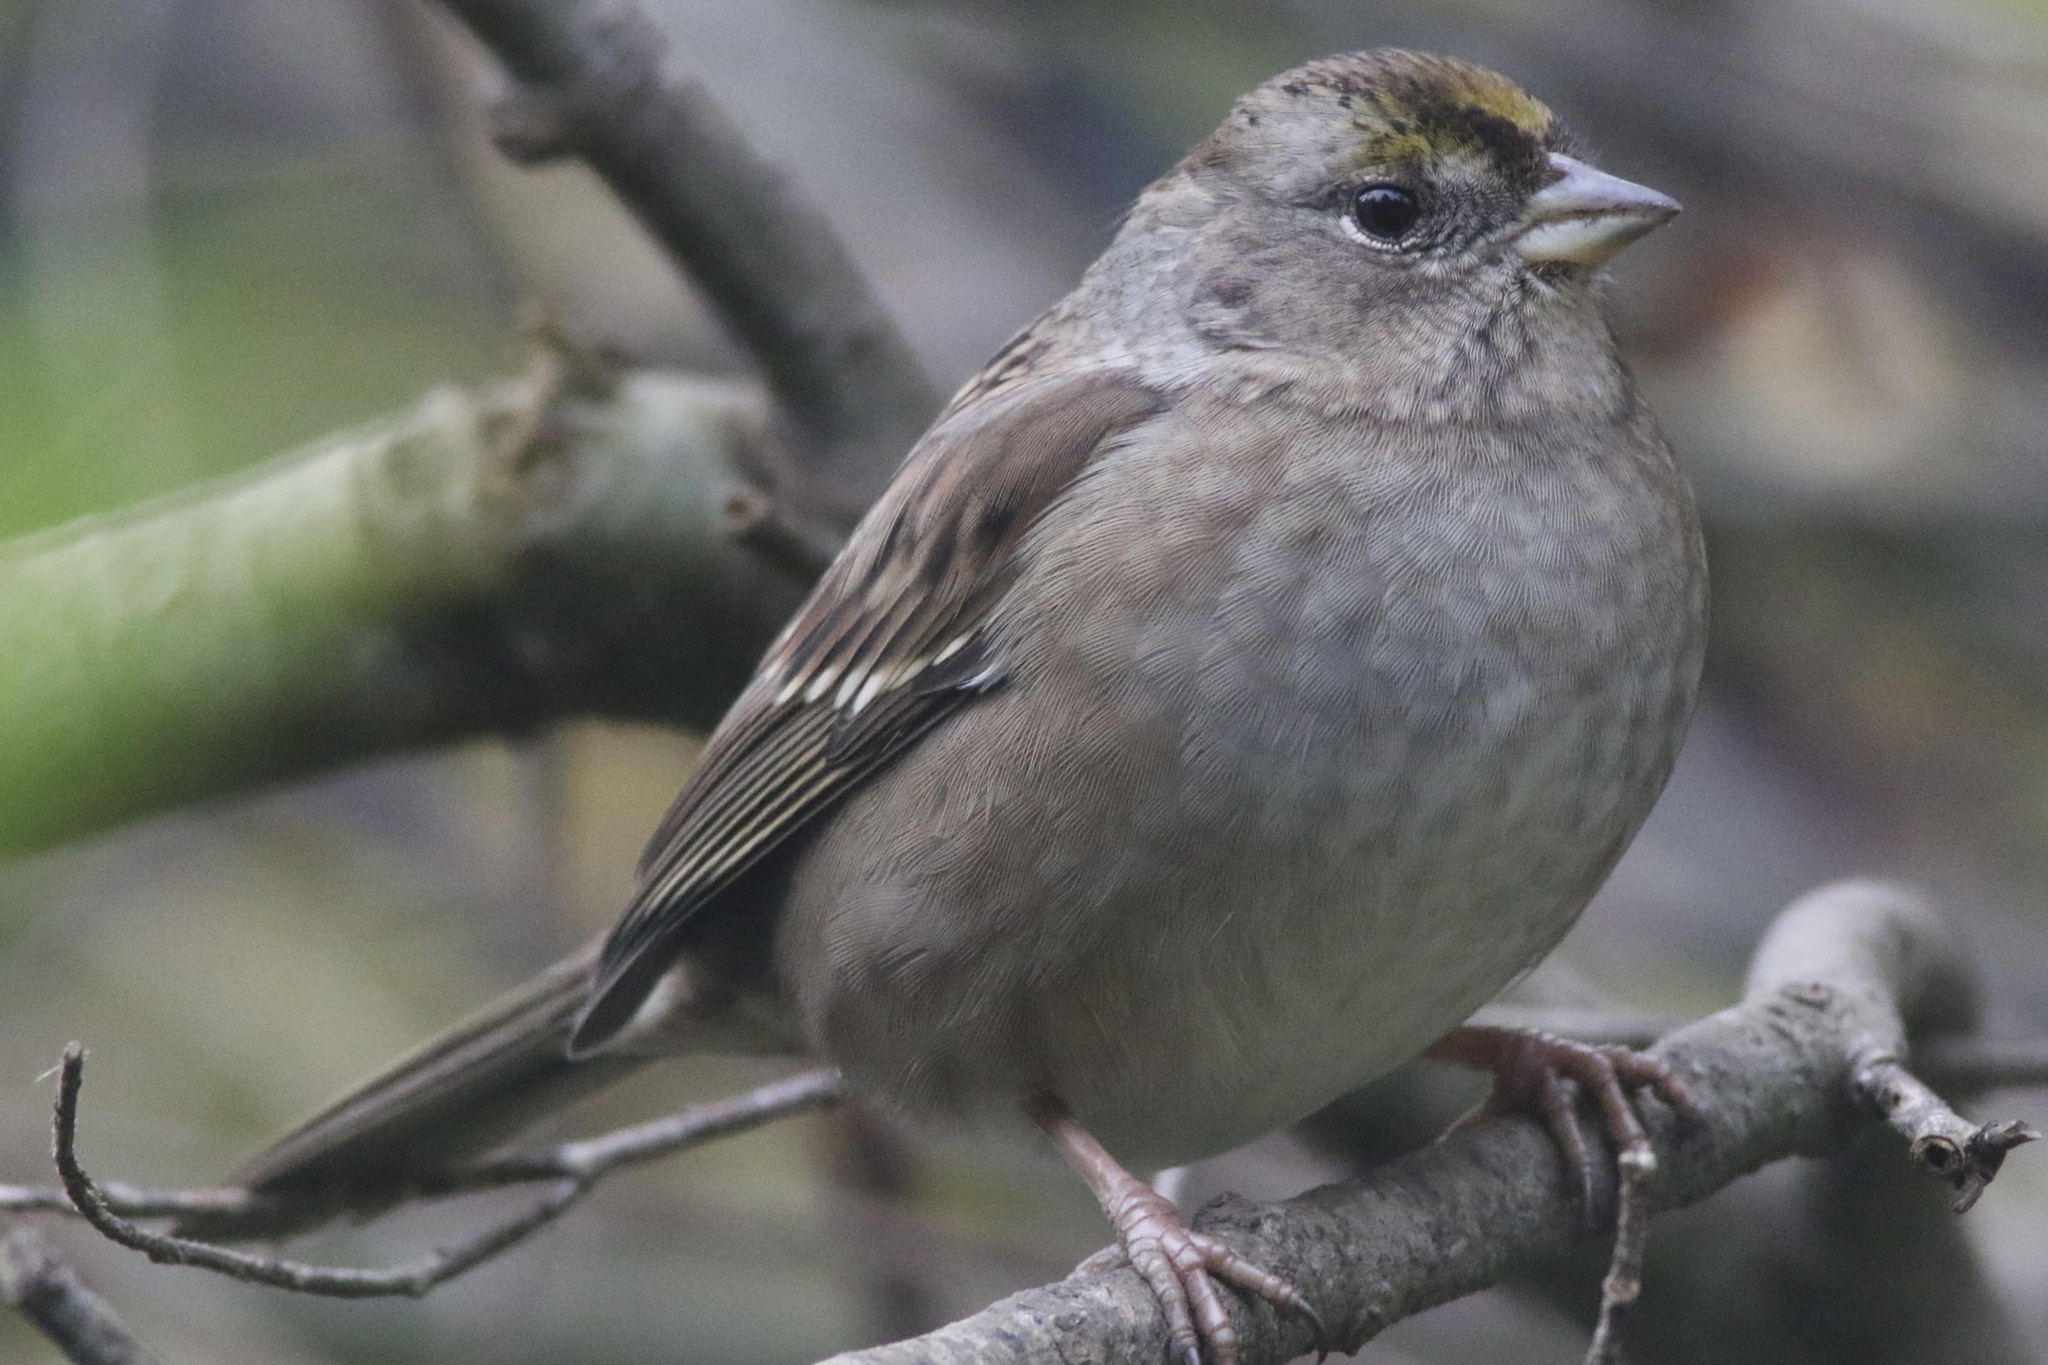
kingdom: Animalia
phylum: Chordata
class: Aves
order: Passeriformes
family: Passerellidae
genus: Zonotrichia
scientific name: Zonotrichia atricapilla
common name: Golden-crowned sparrow
